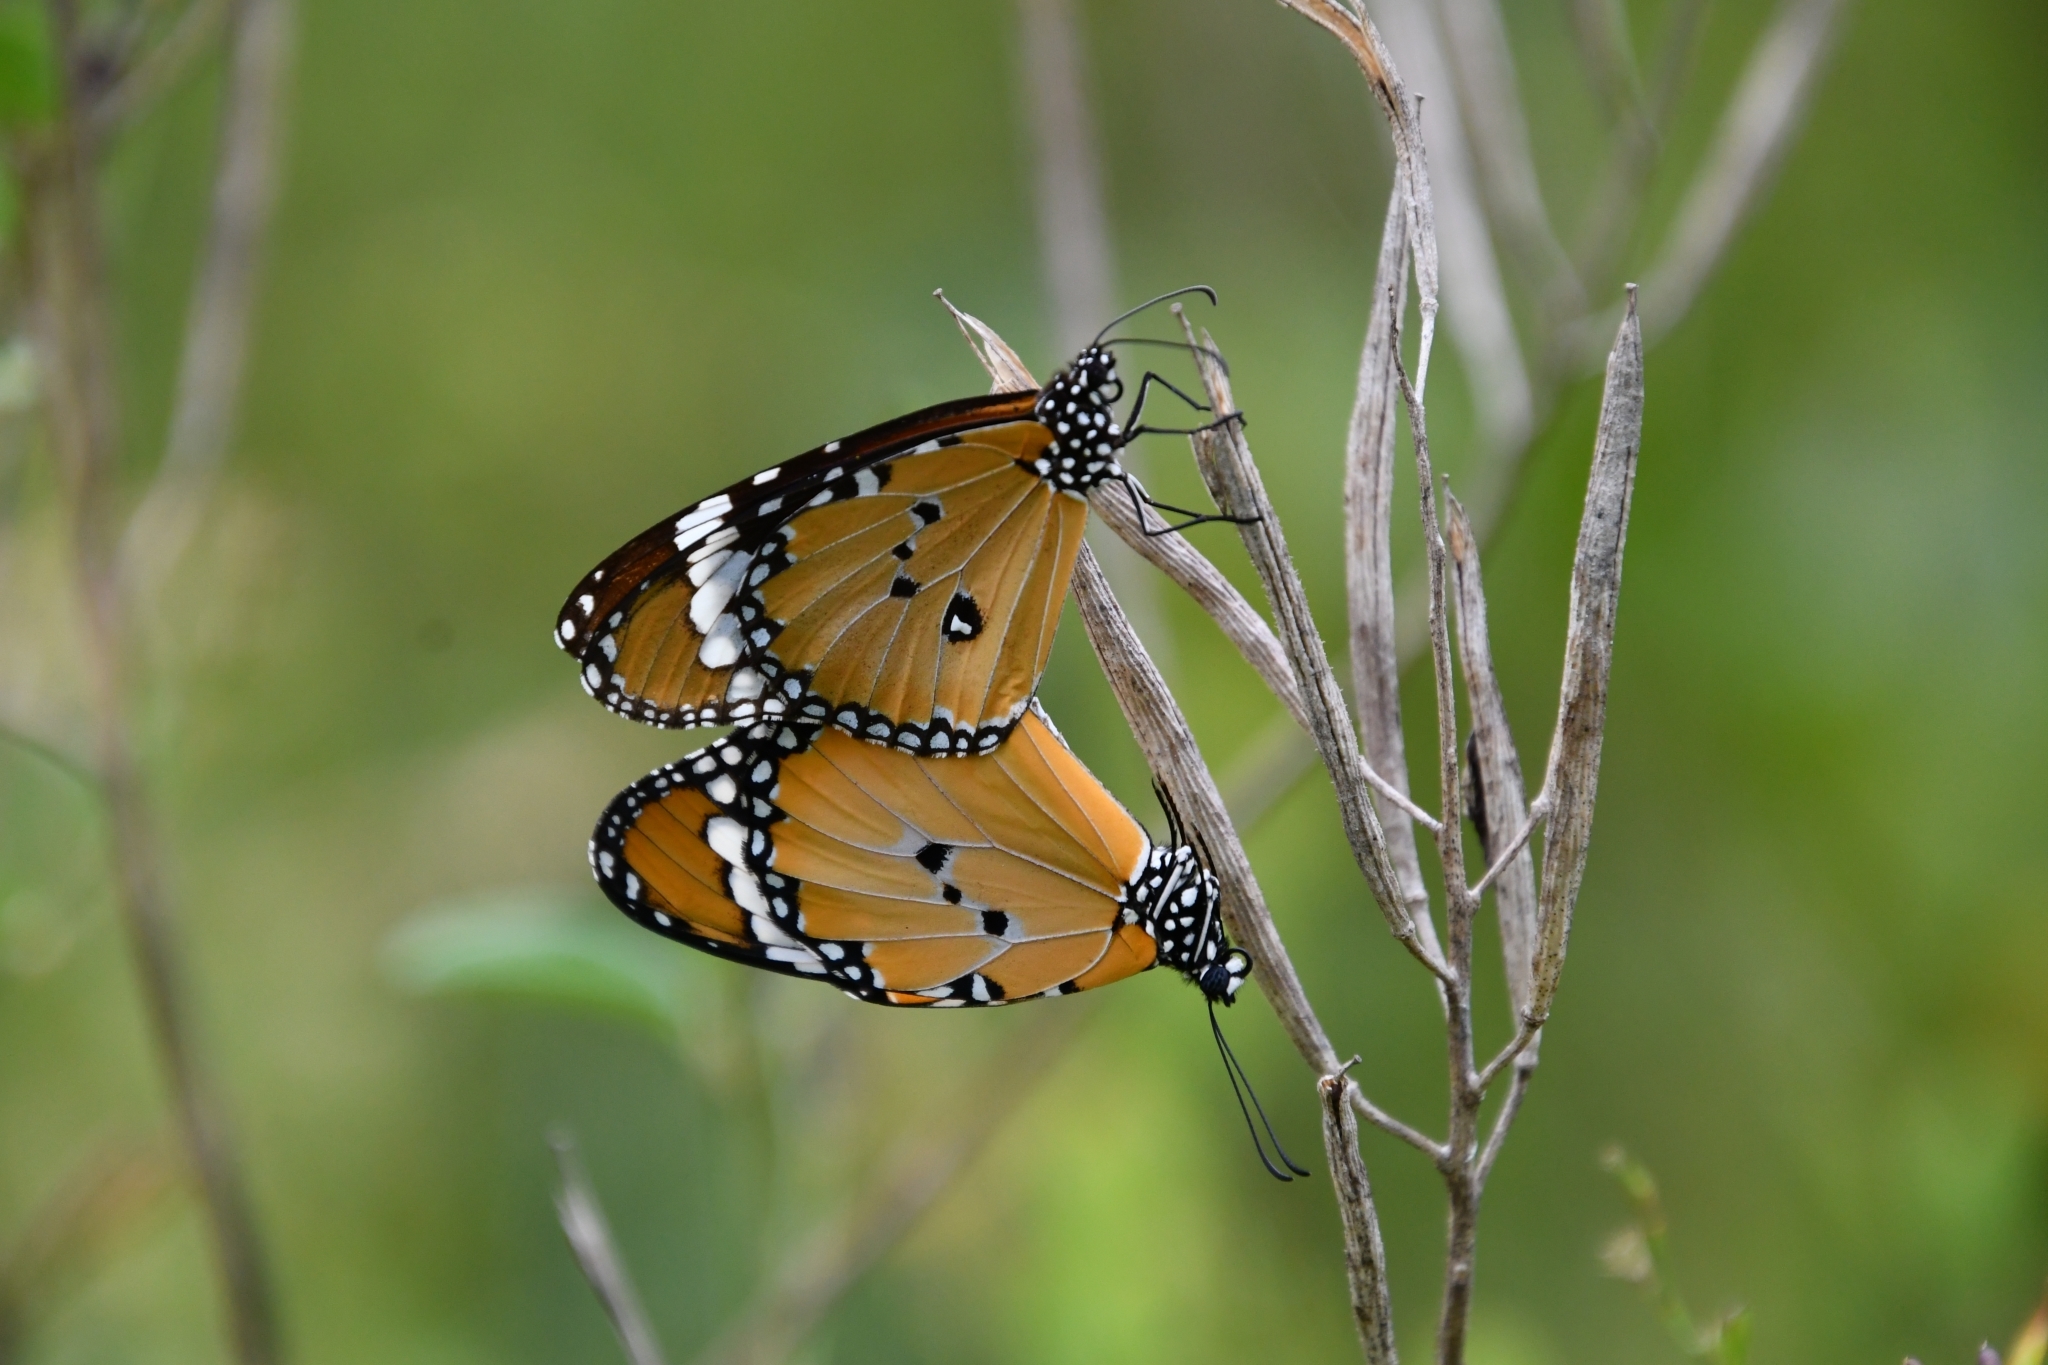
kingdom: Animalia
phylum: Arthropoda
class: Insecta
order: Lepidoptera
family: Nymphalidae
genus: Danaus
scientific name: Danaus chrysippus
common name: Plain tiger
